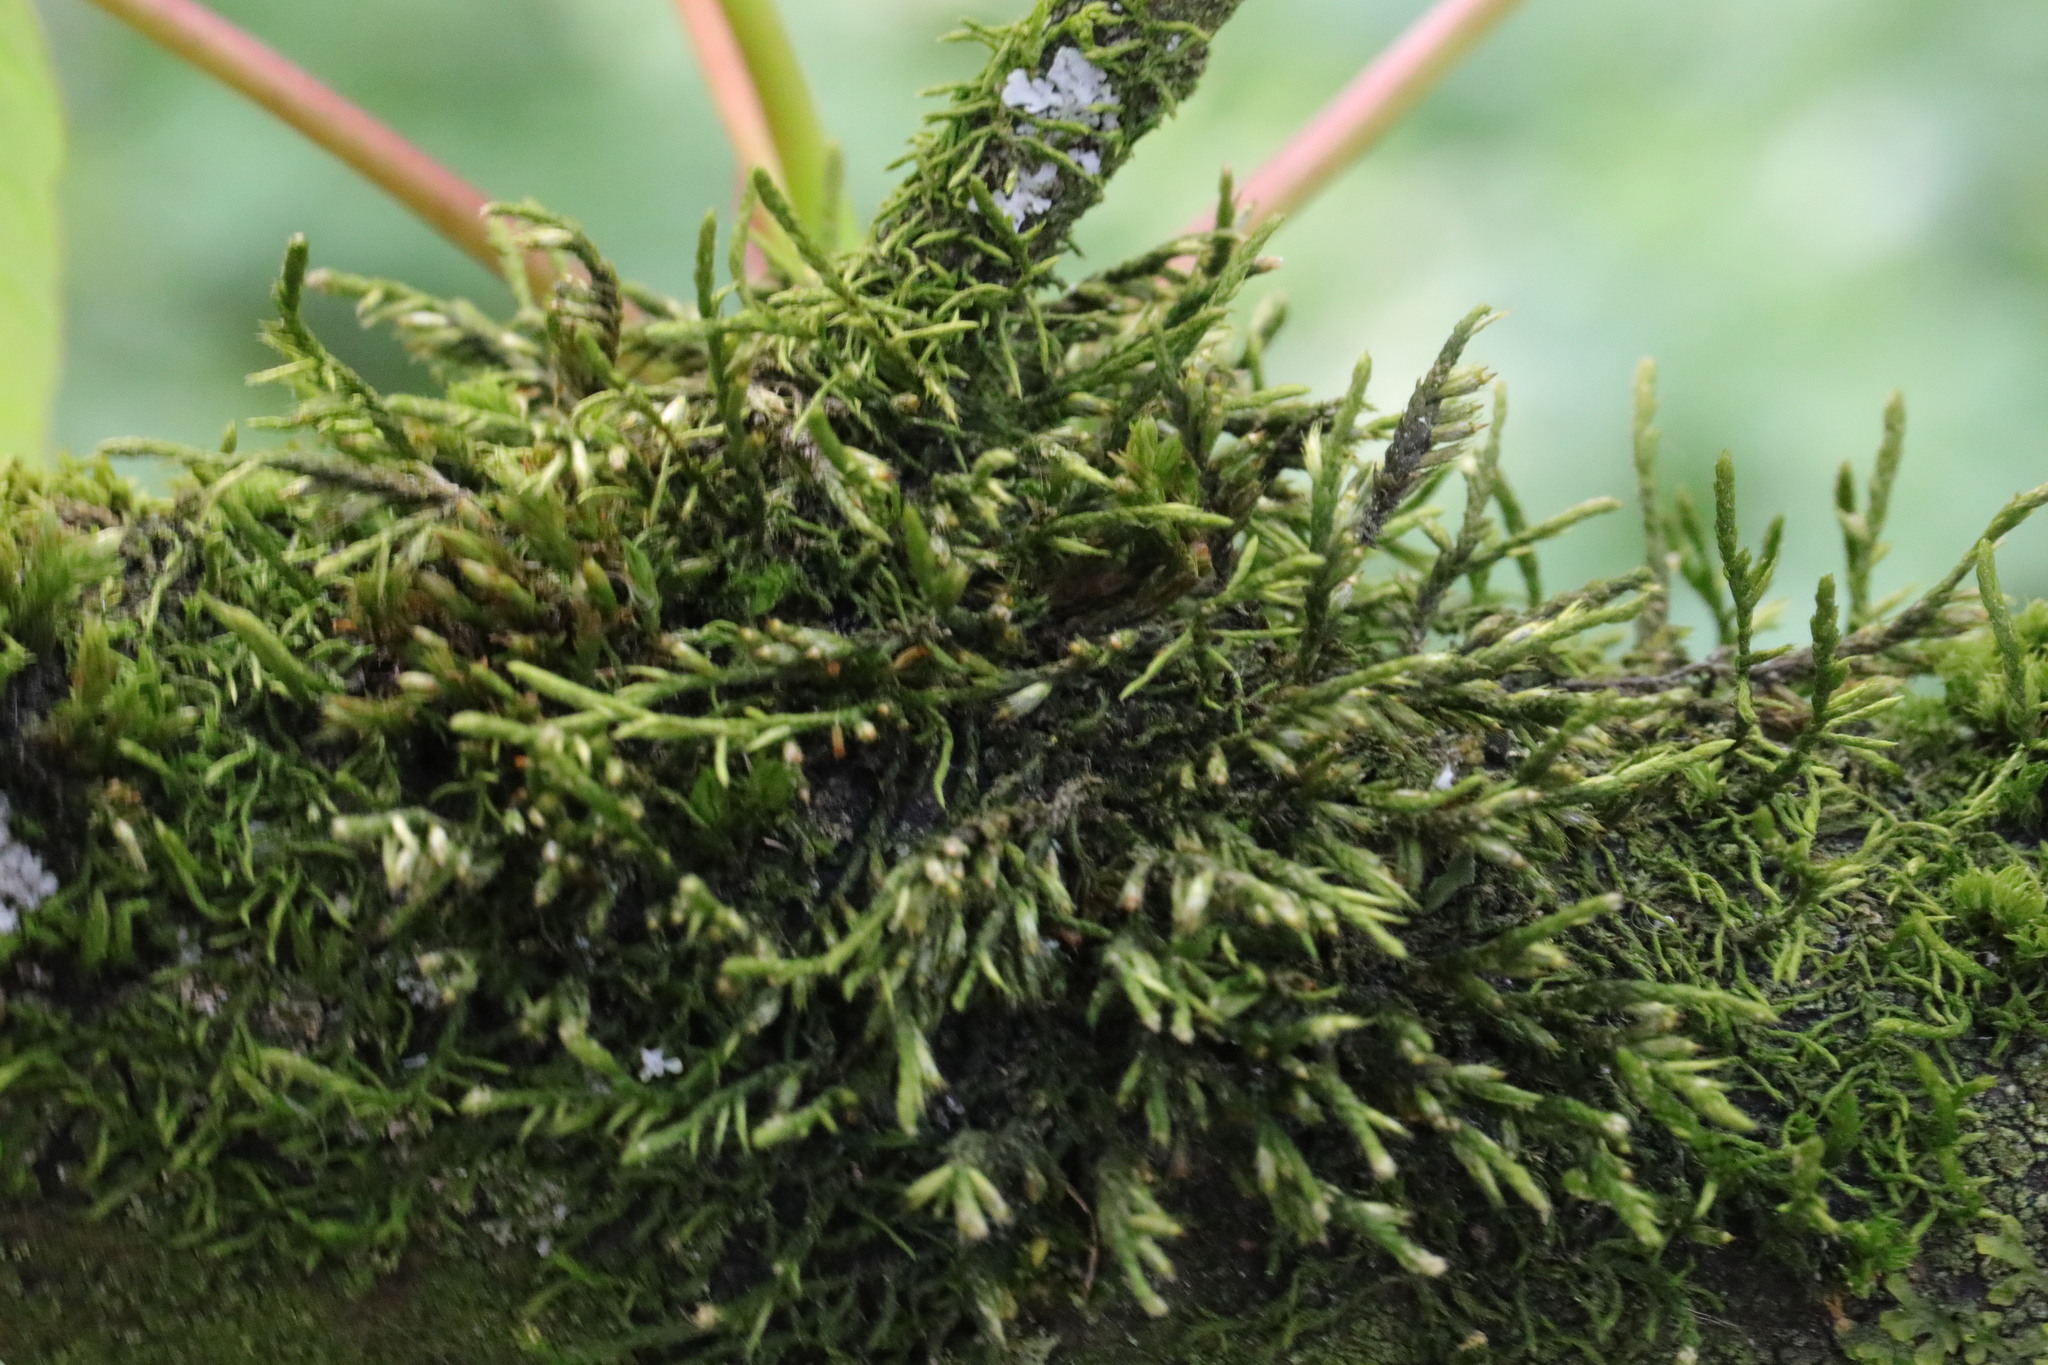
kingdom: Plantae
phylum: Bryophyta
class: Bryopsida
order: Hypnales
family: Cryphaeaceae
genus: Cryphaea
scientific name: Cryphaea heteromalla
